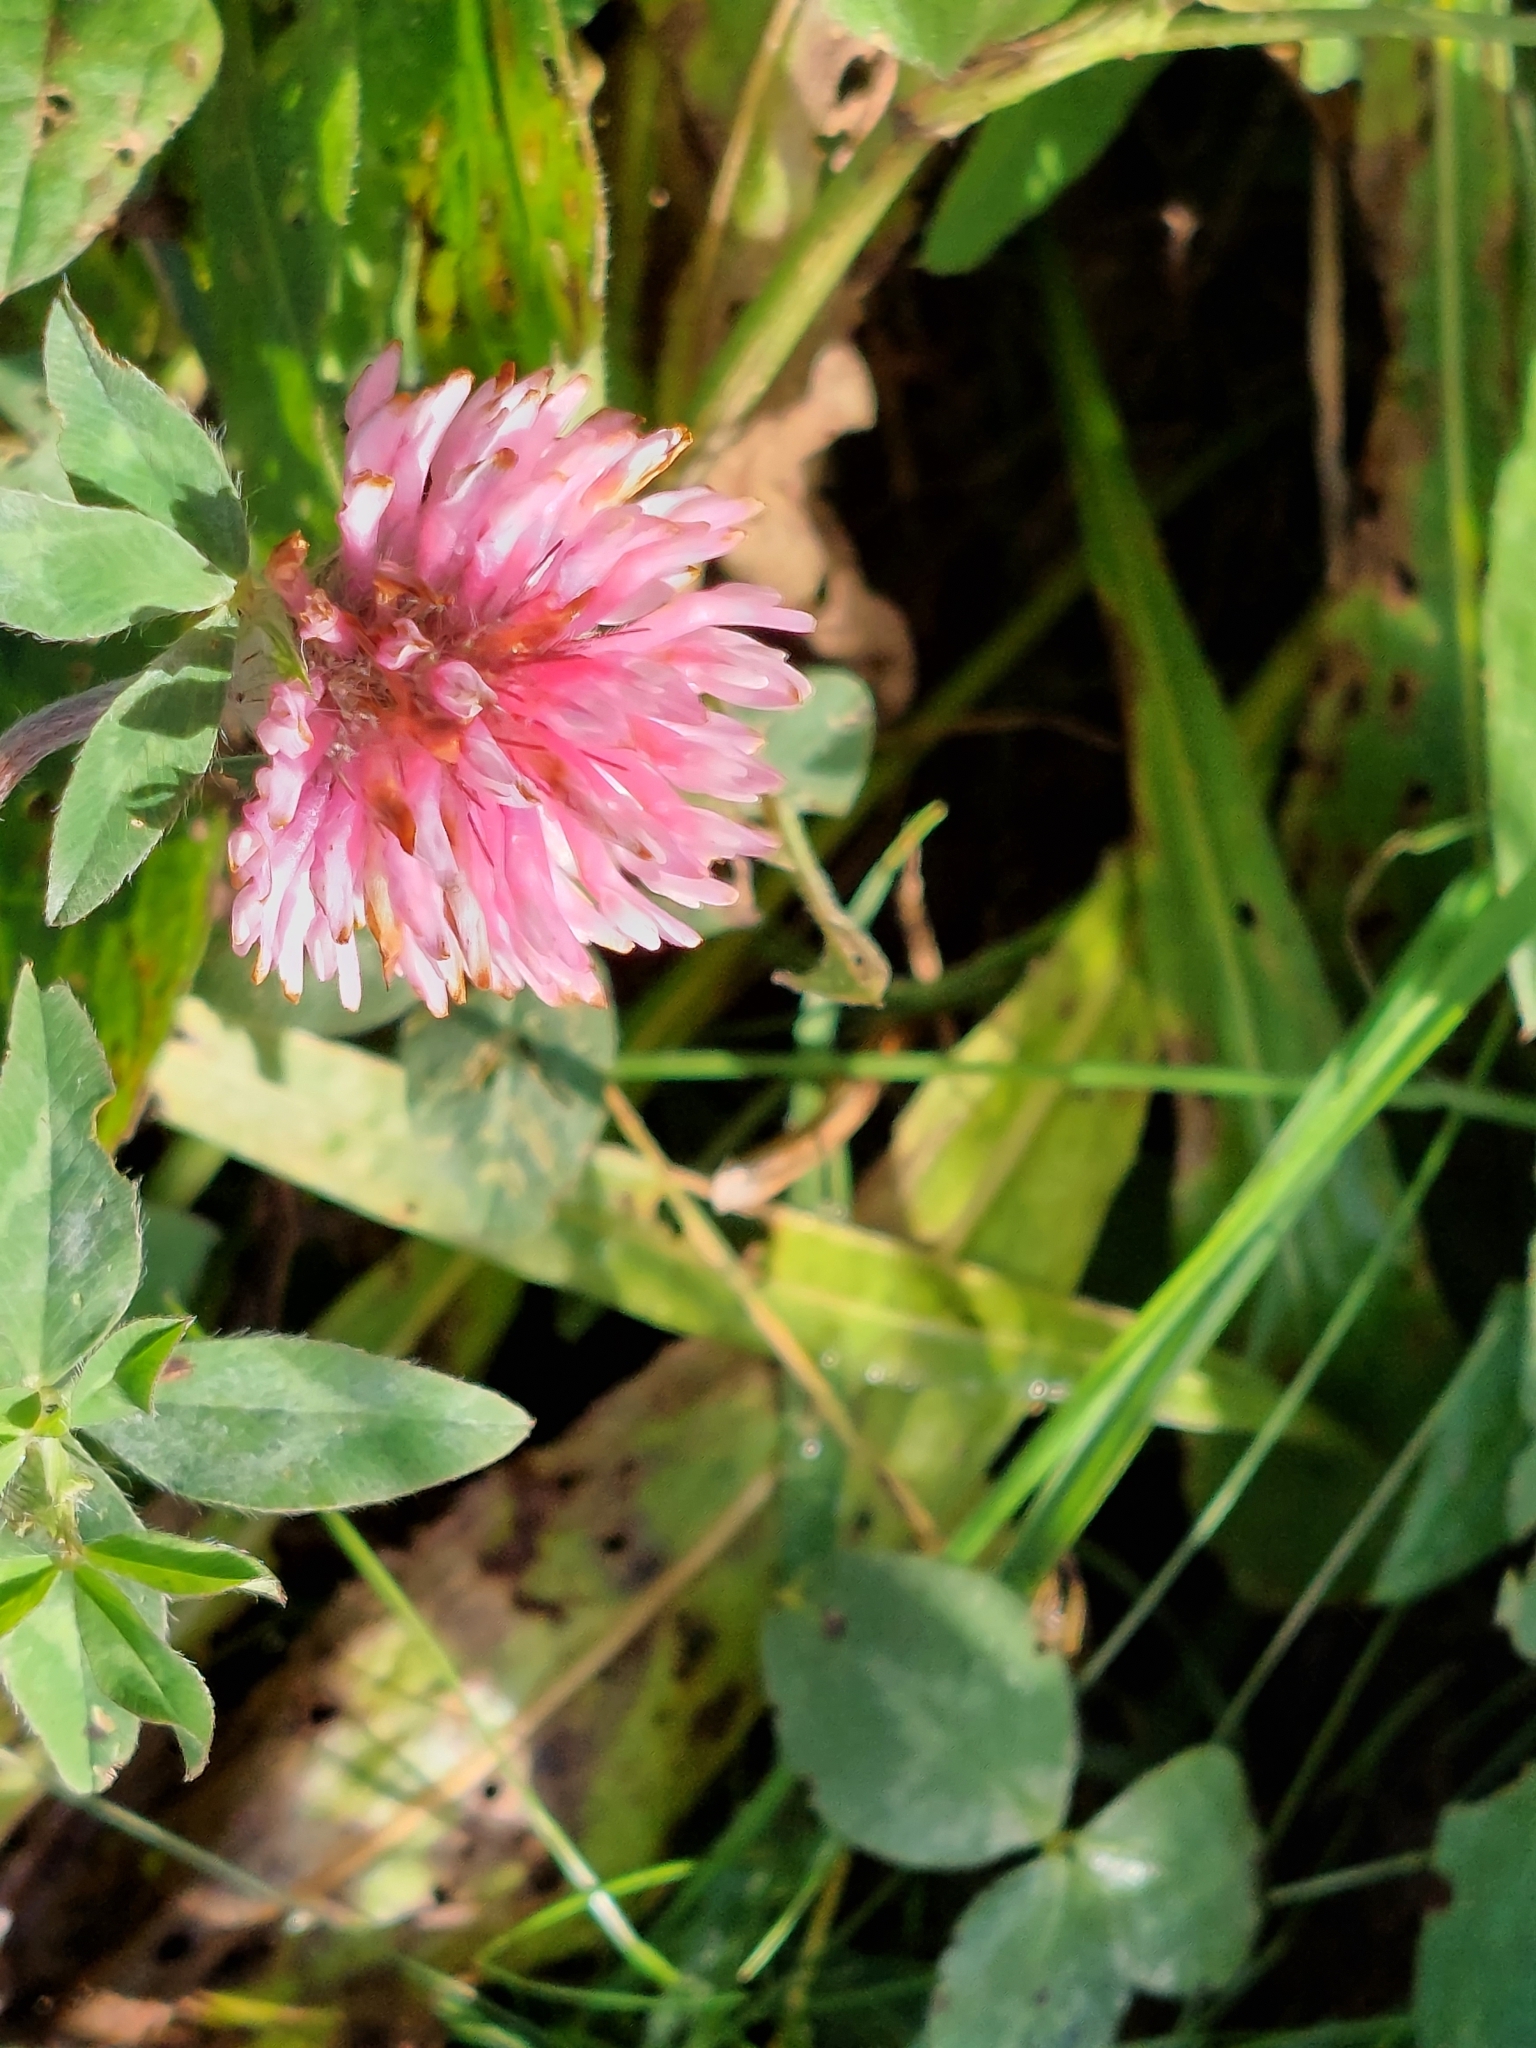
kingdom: Plantae
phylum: Tracheophyta
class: Magnoliopsida
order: Fabales
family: Fabaceae
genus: Trifolium
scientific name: Trifolium pratense
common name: Red clover
